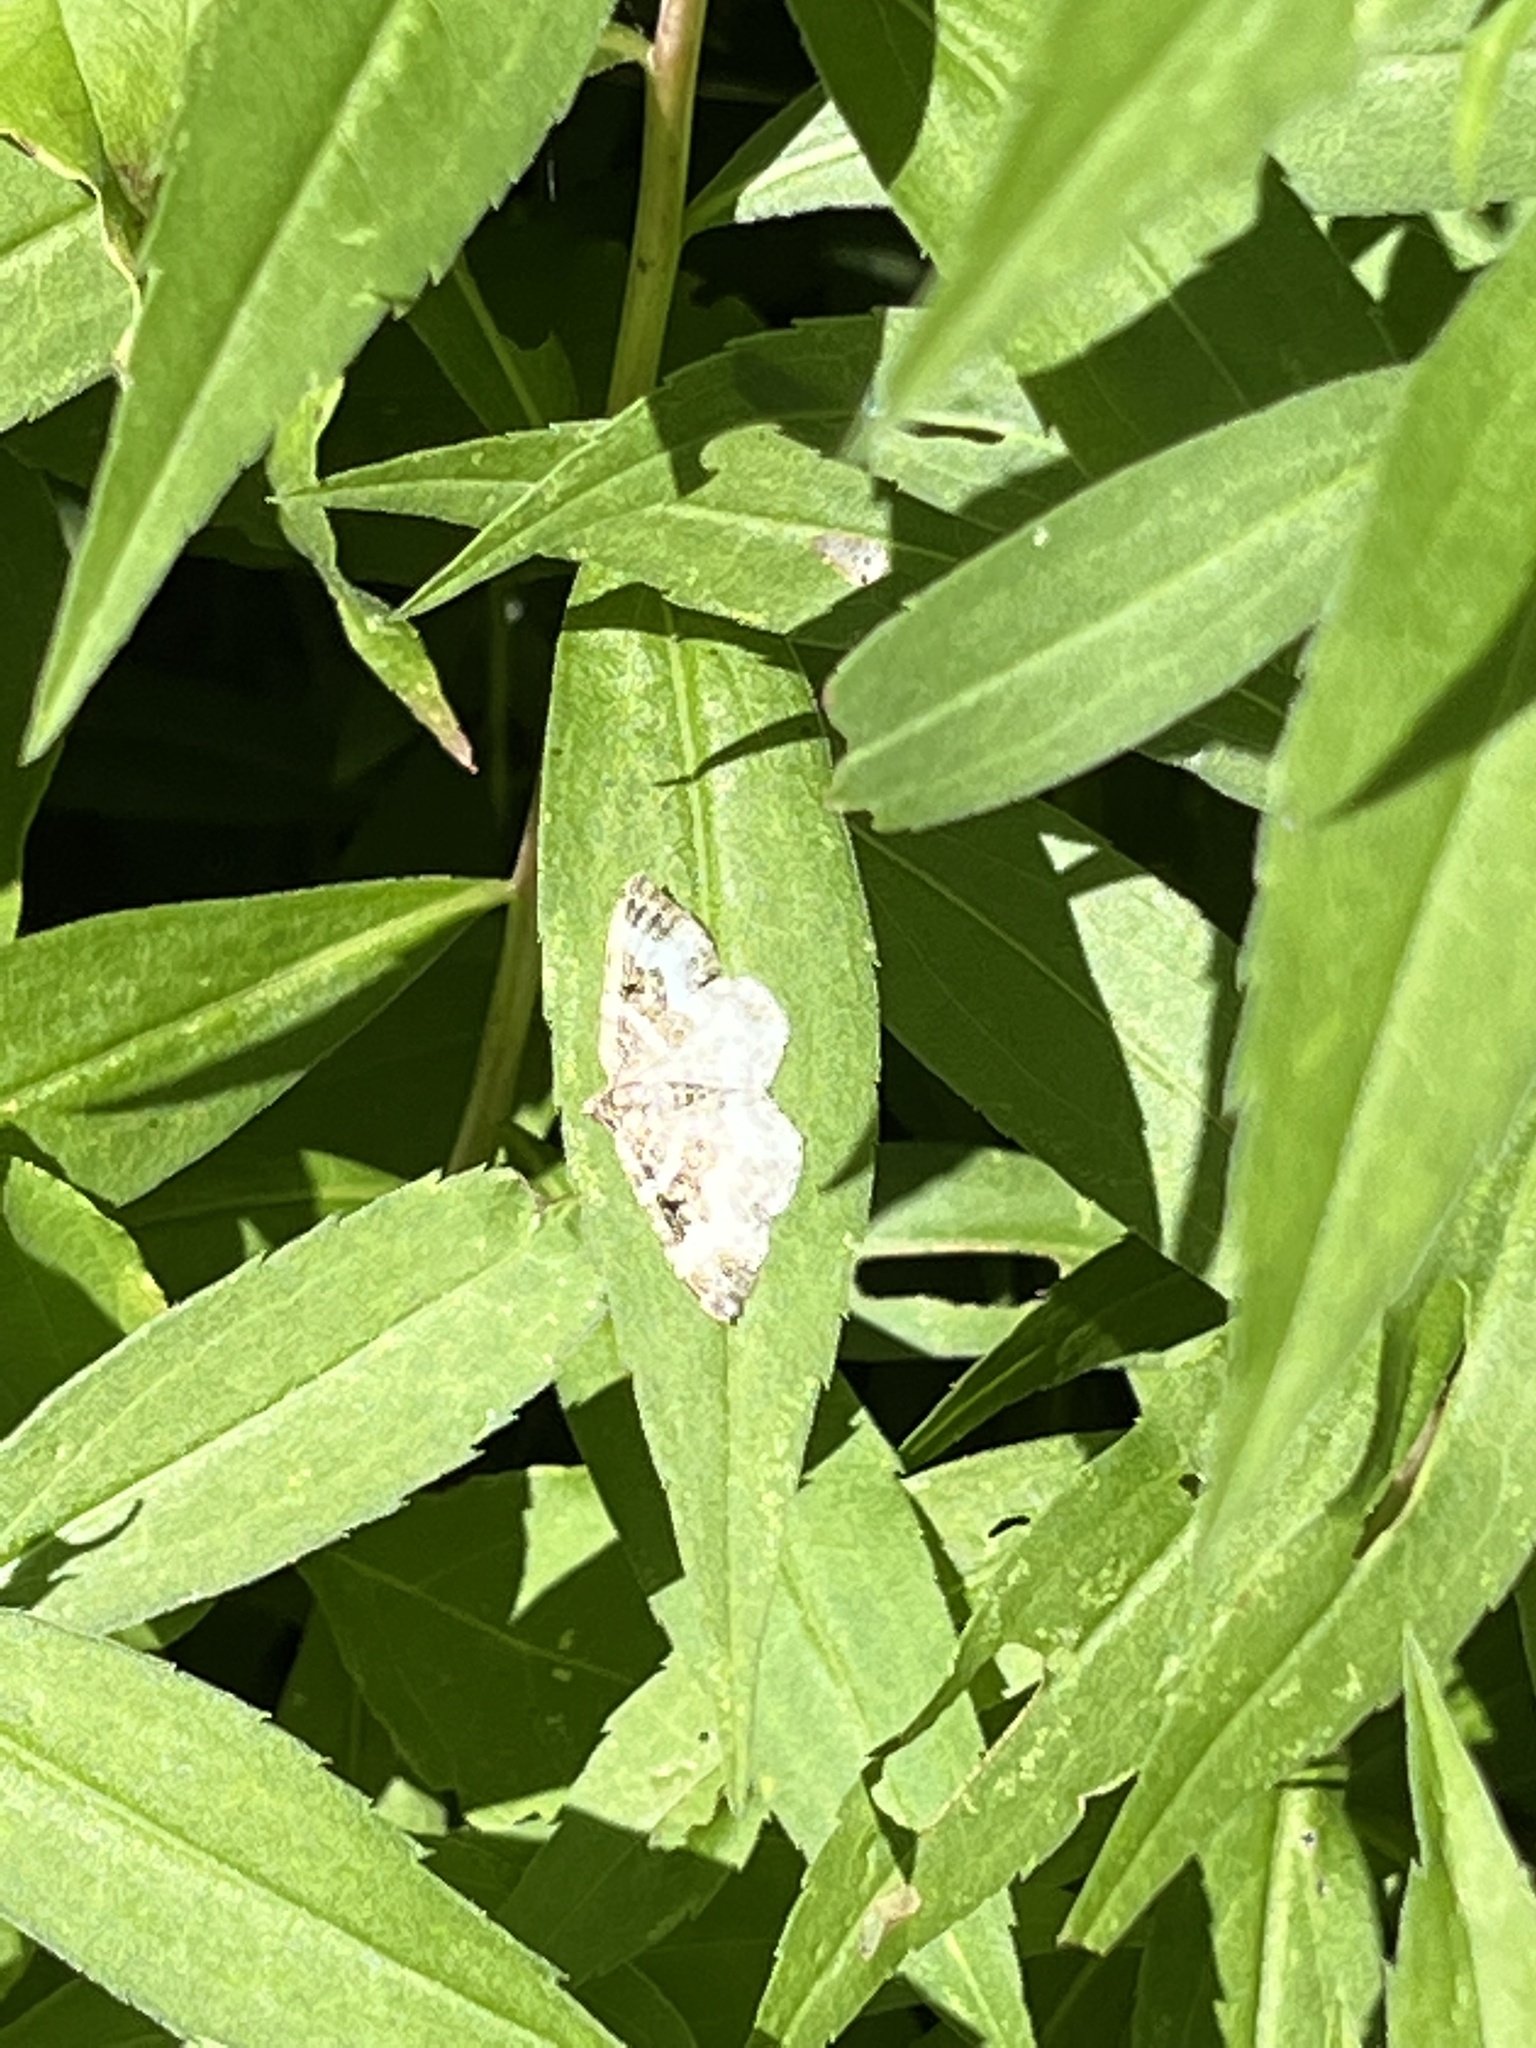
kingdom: Animalia
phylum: Arthropoda
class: Insecta
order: Lepidoptera
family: Geometridae
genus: Epirrhoe
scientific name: Epirrhoe alternata
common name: Common carpet
